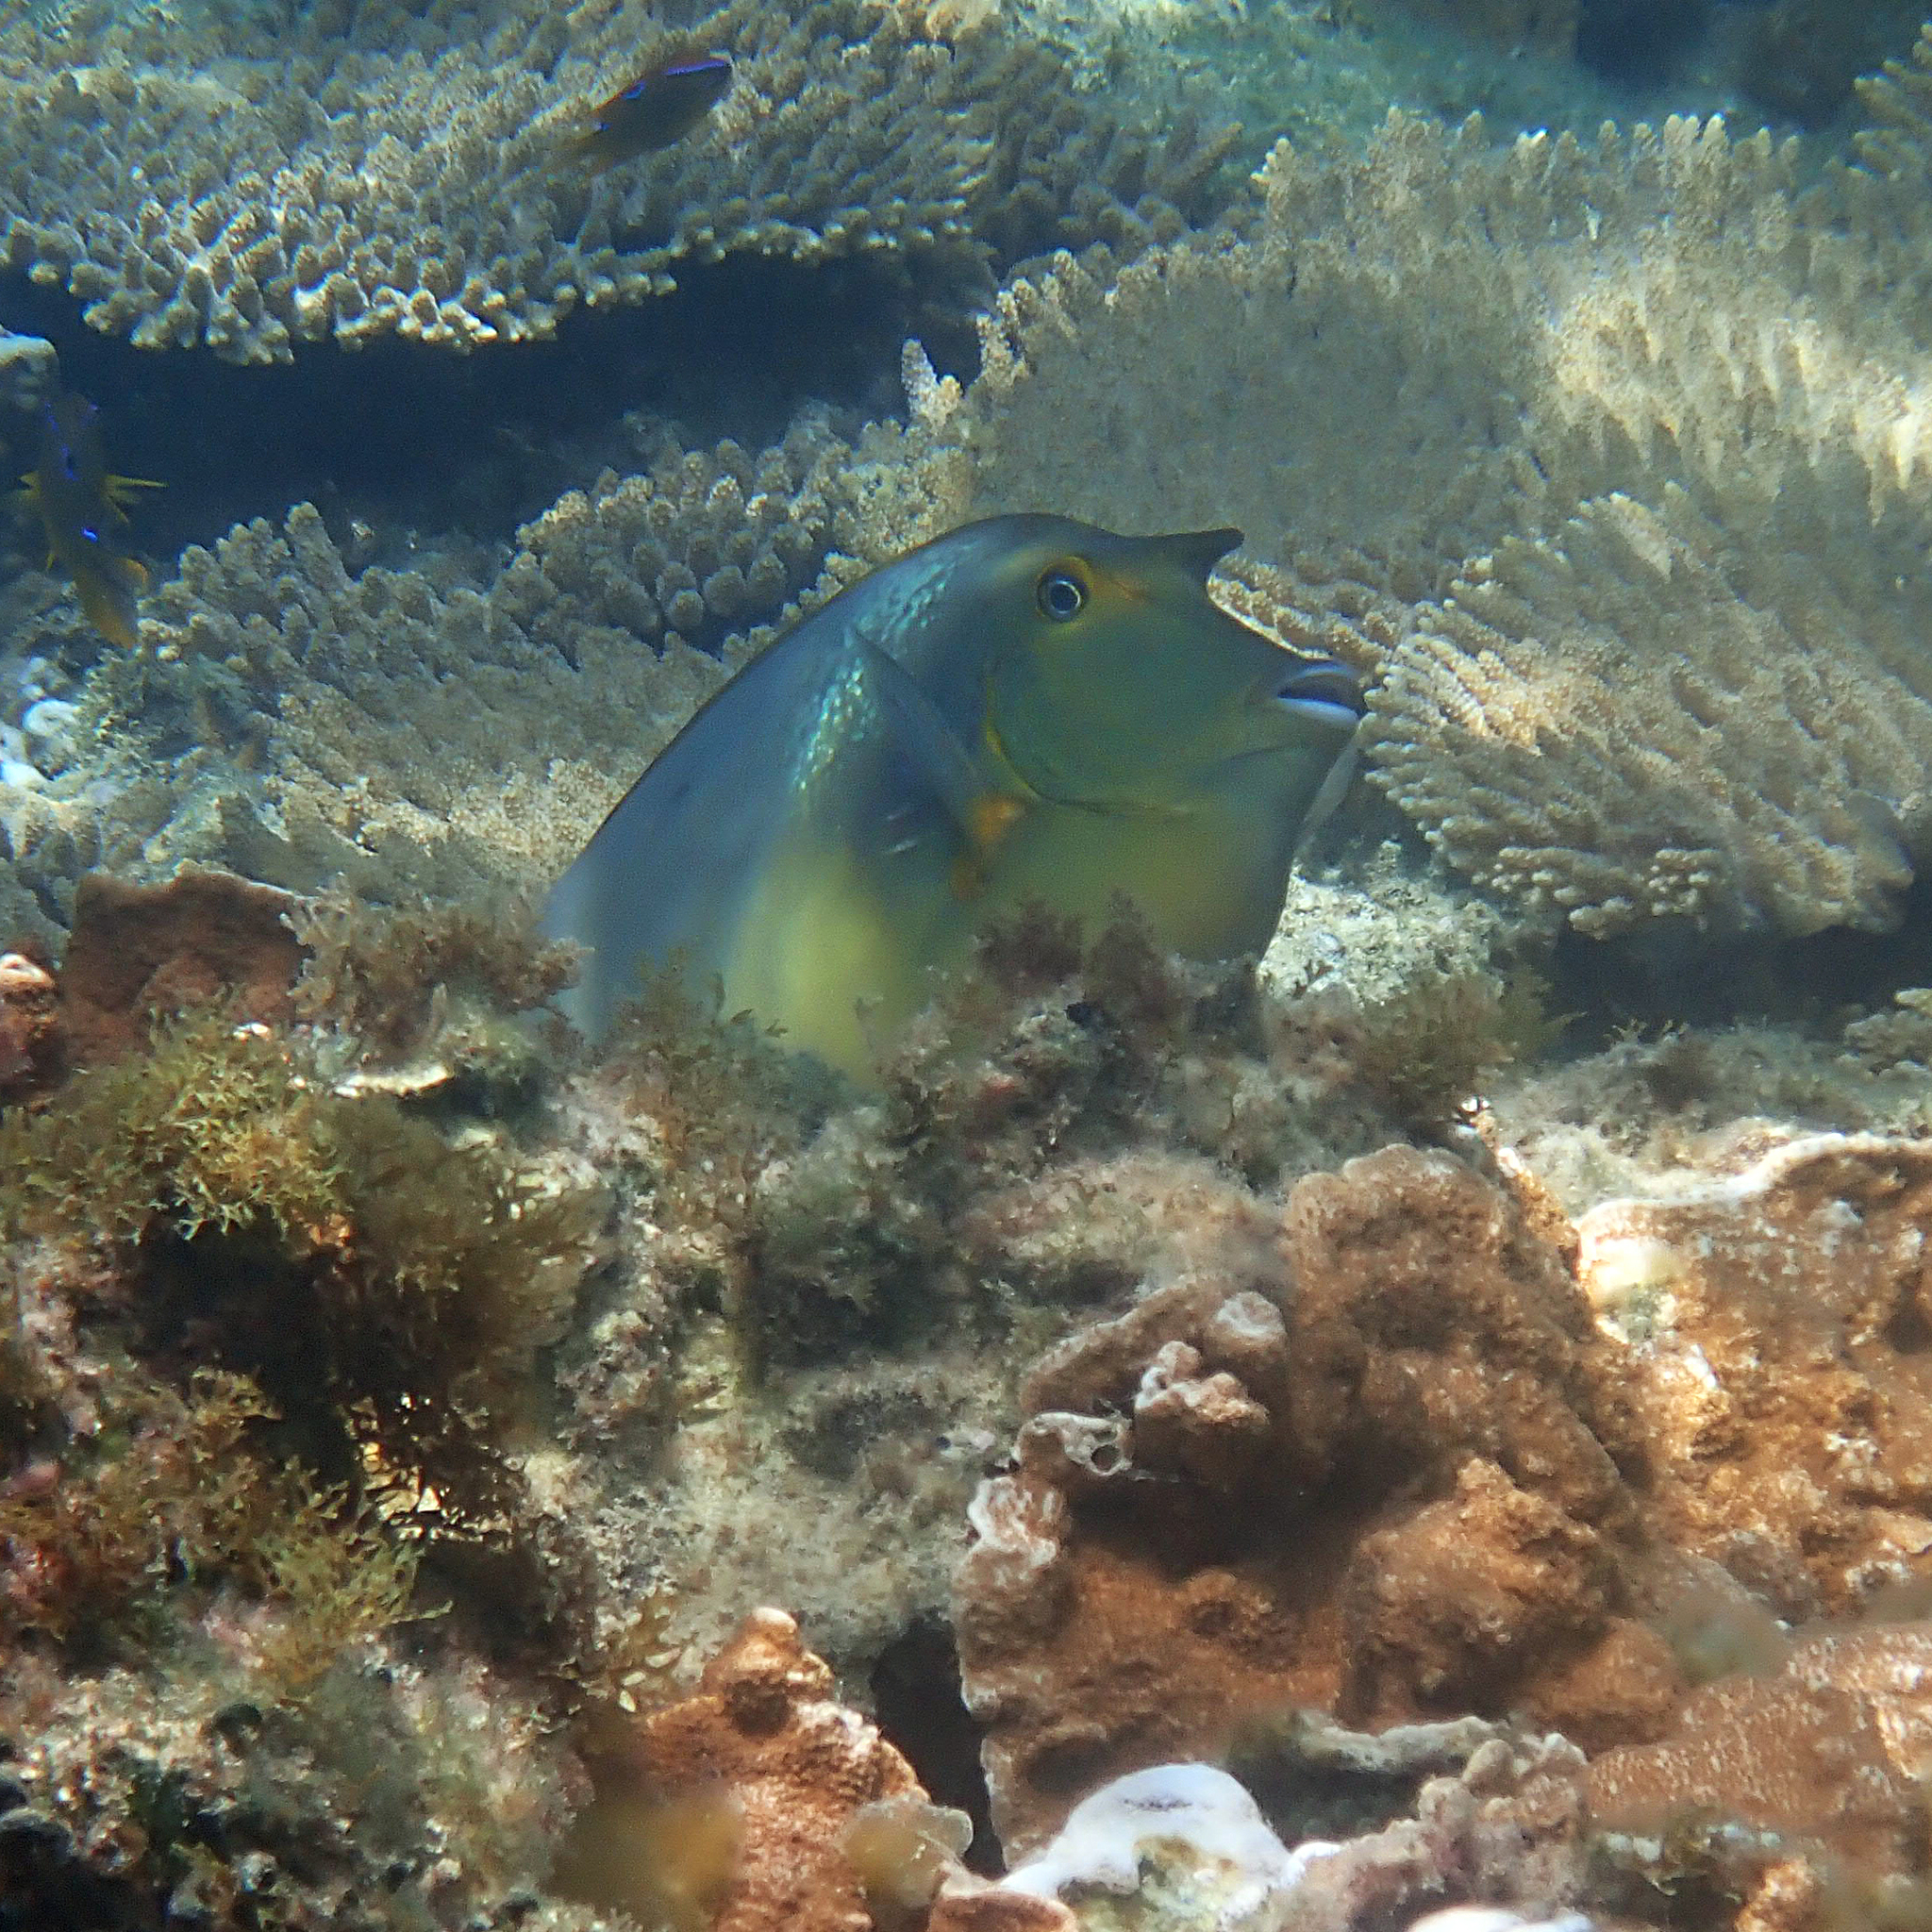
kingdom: Animalia
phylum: Chordata
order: Perciformes
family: Acanthuridae
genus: Naso
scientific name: Naso unicornis
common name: Bluespine unicornfish
